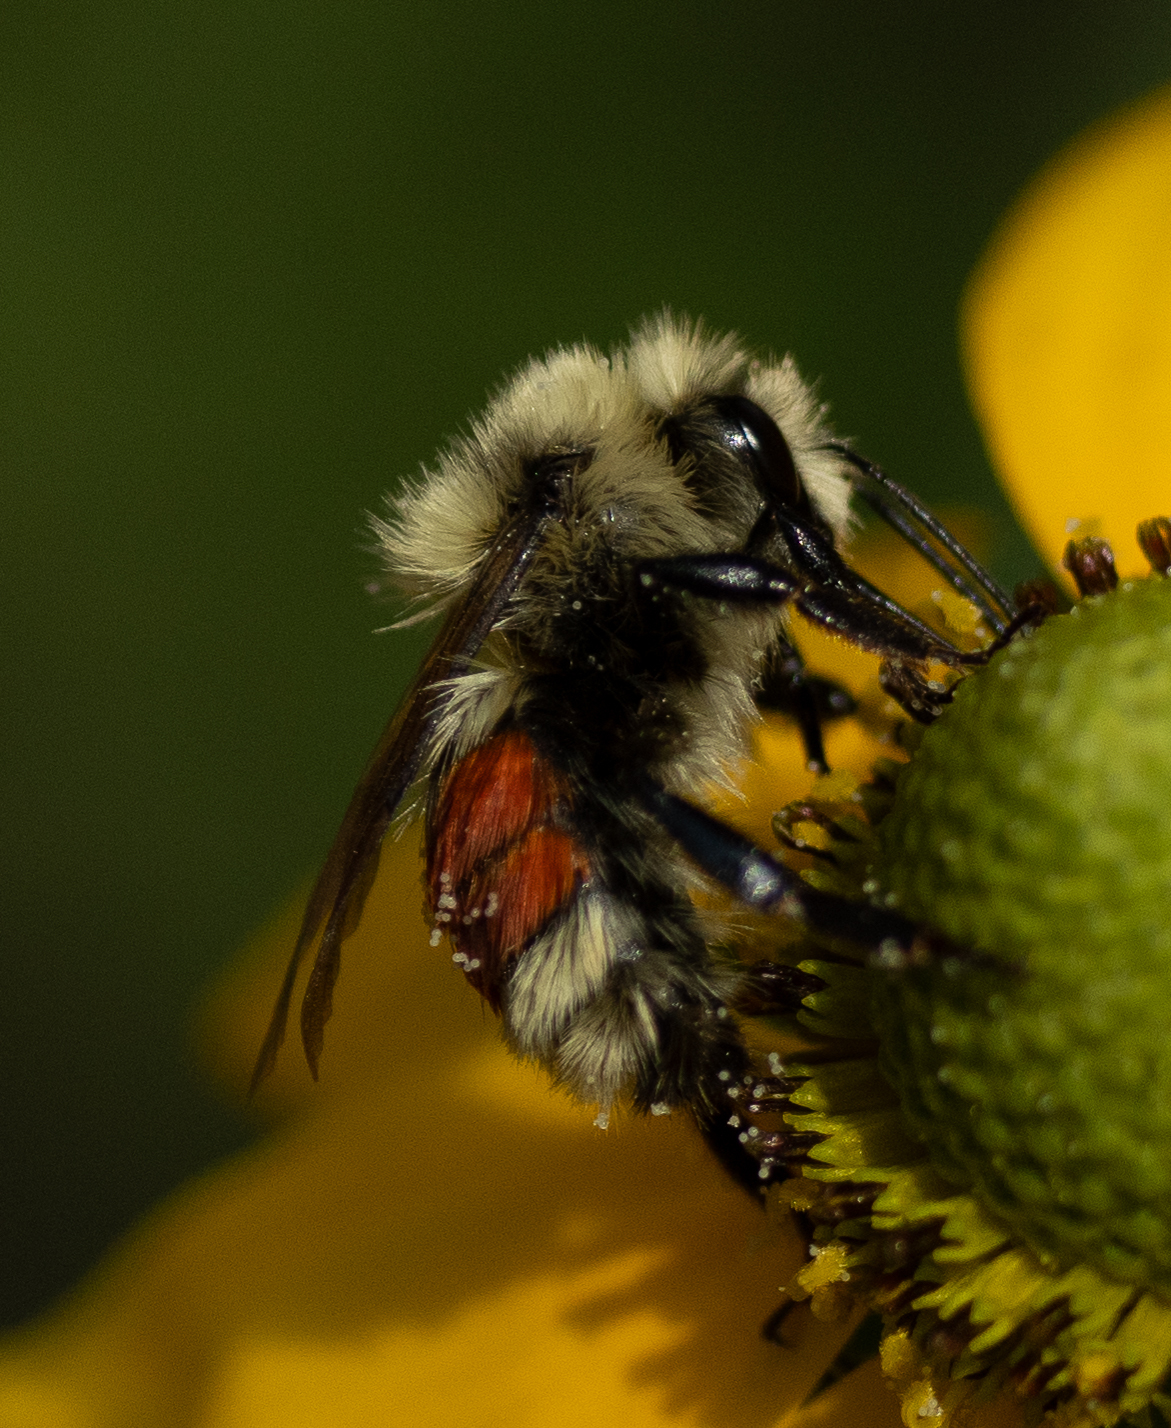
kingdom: Animalia
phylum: Arthropoda
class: Insecta
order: Hymenoptera
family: Apidae
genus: Bombus
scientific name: Bombus huntii
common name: Hunt bumble bee
